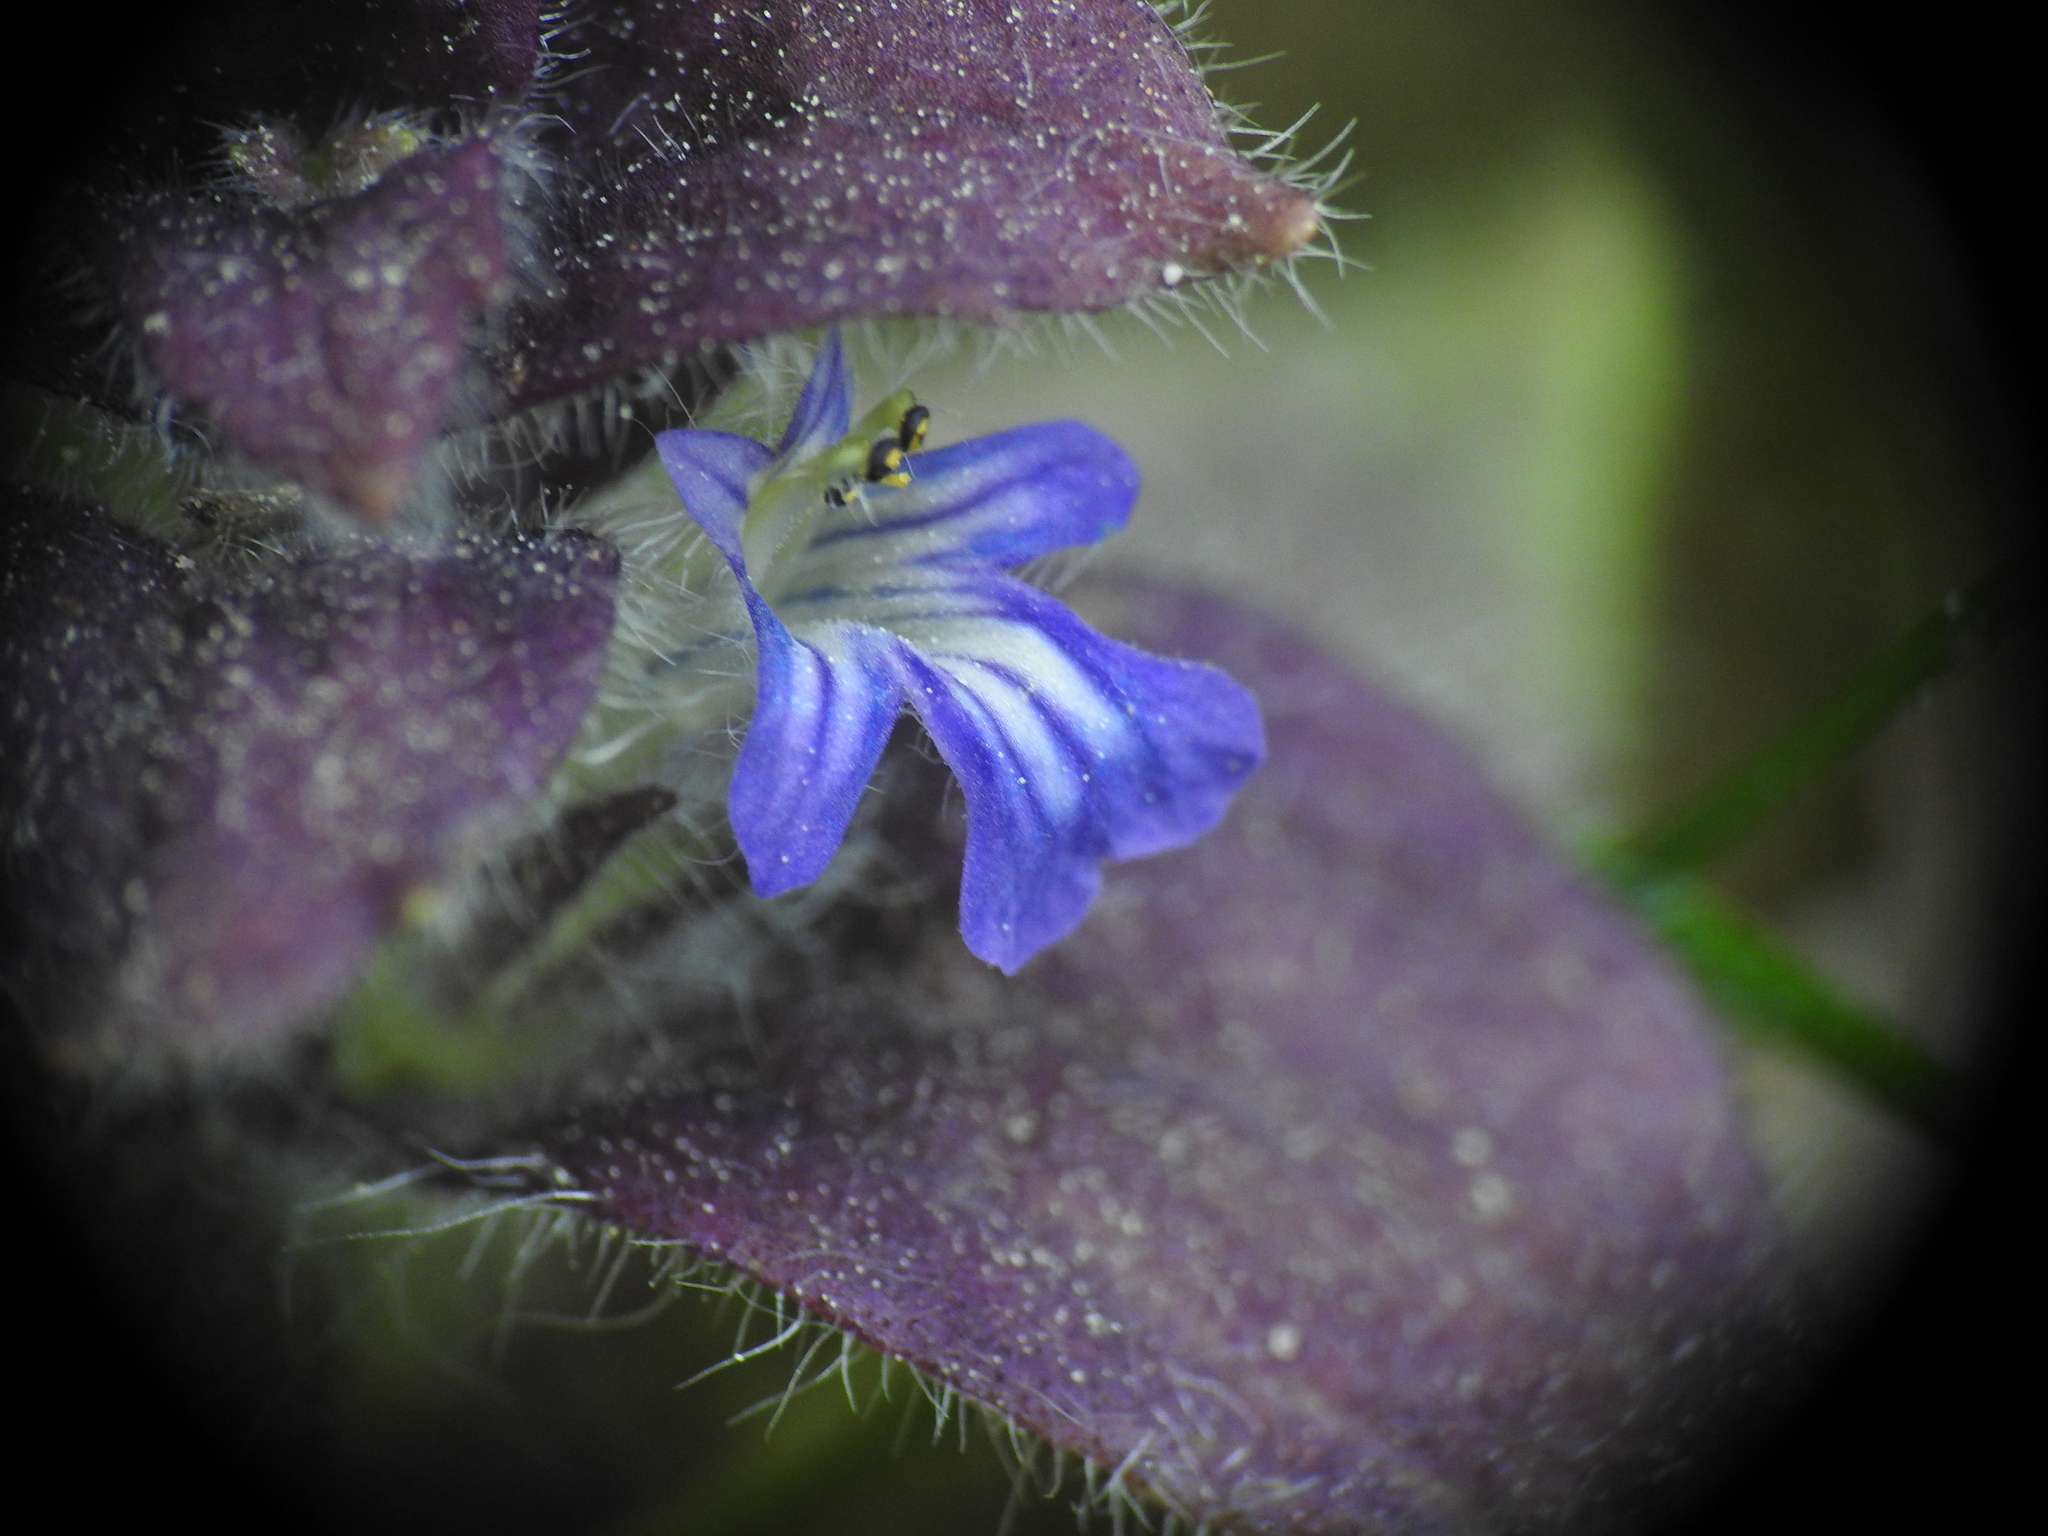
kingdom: Plantae
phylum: Tracheophyta
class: Magnoliopsida
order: Lamiales
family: Lamiaceae
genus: Ajuga
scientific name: Ajuga pyramidalis
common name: Pyramid bugle
